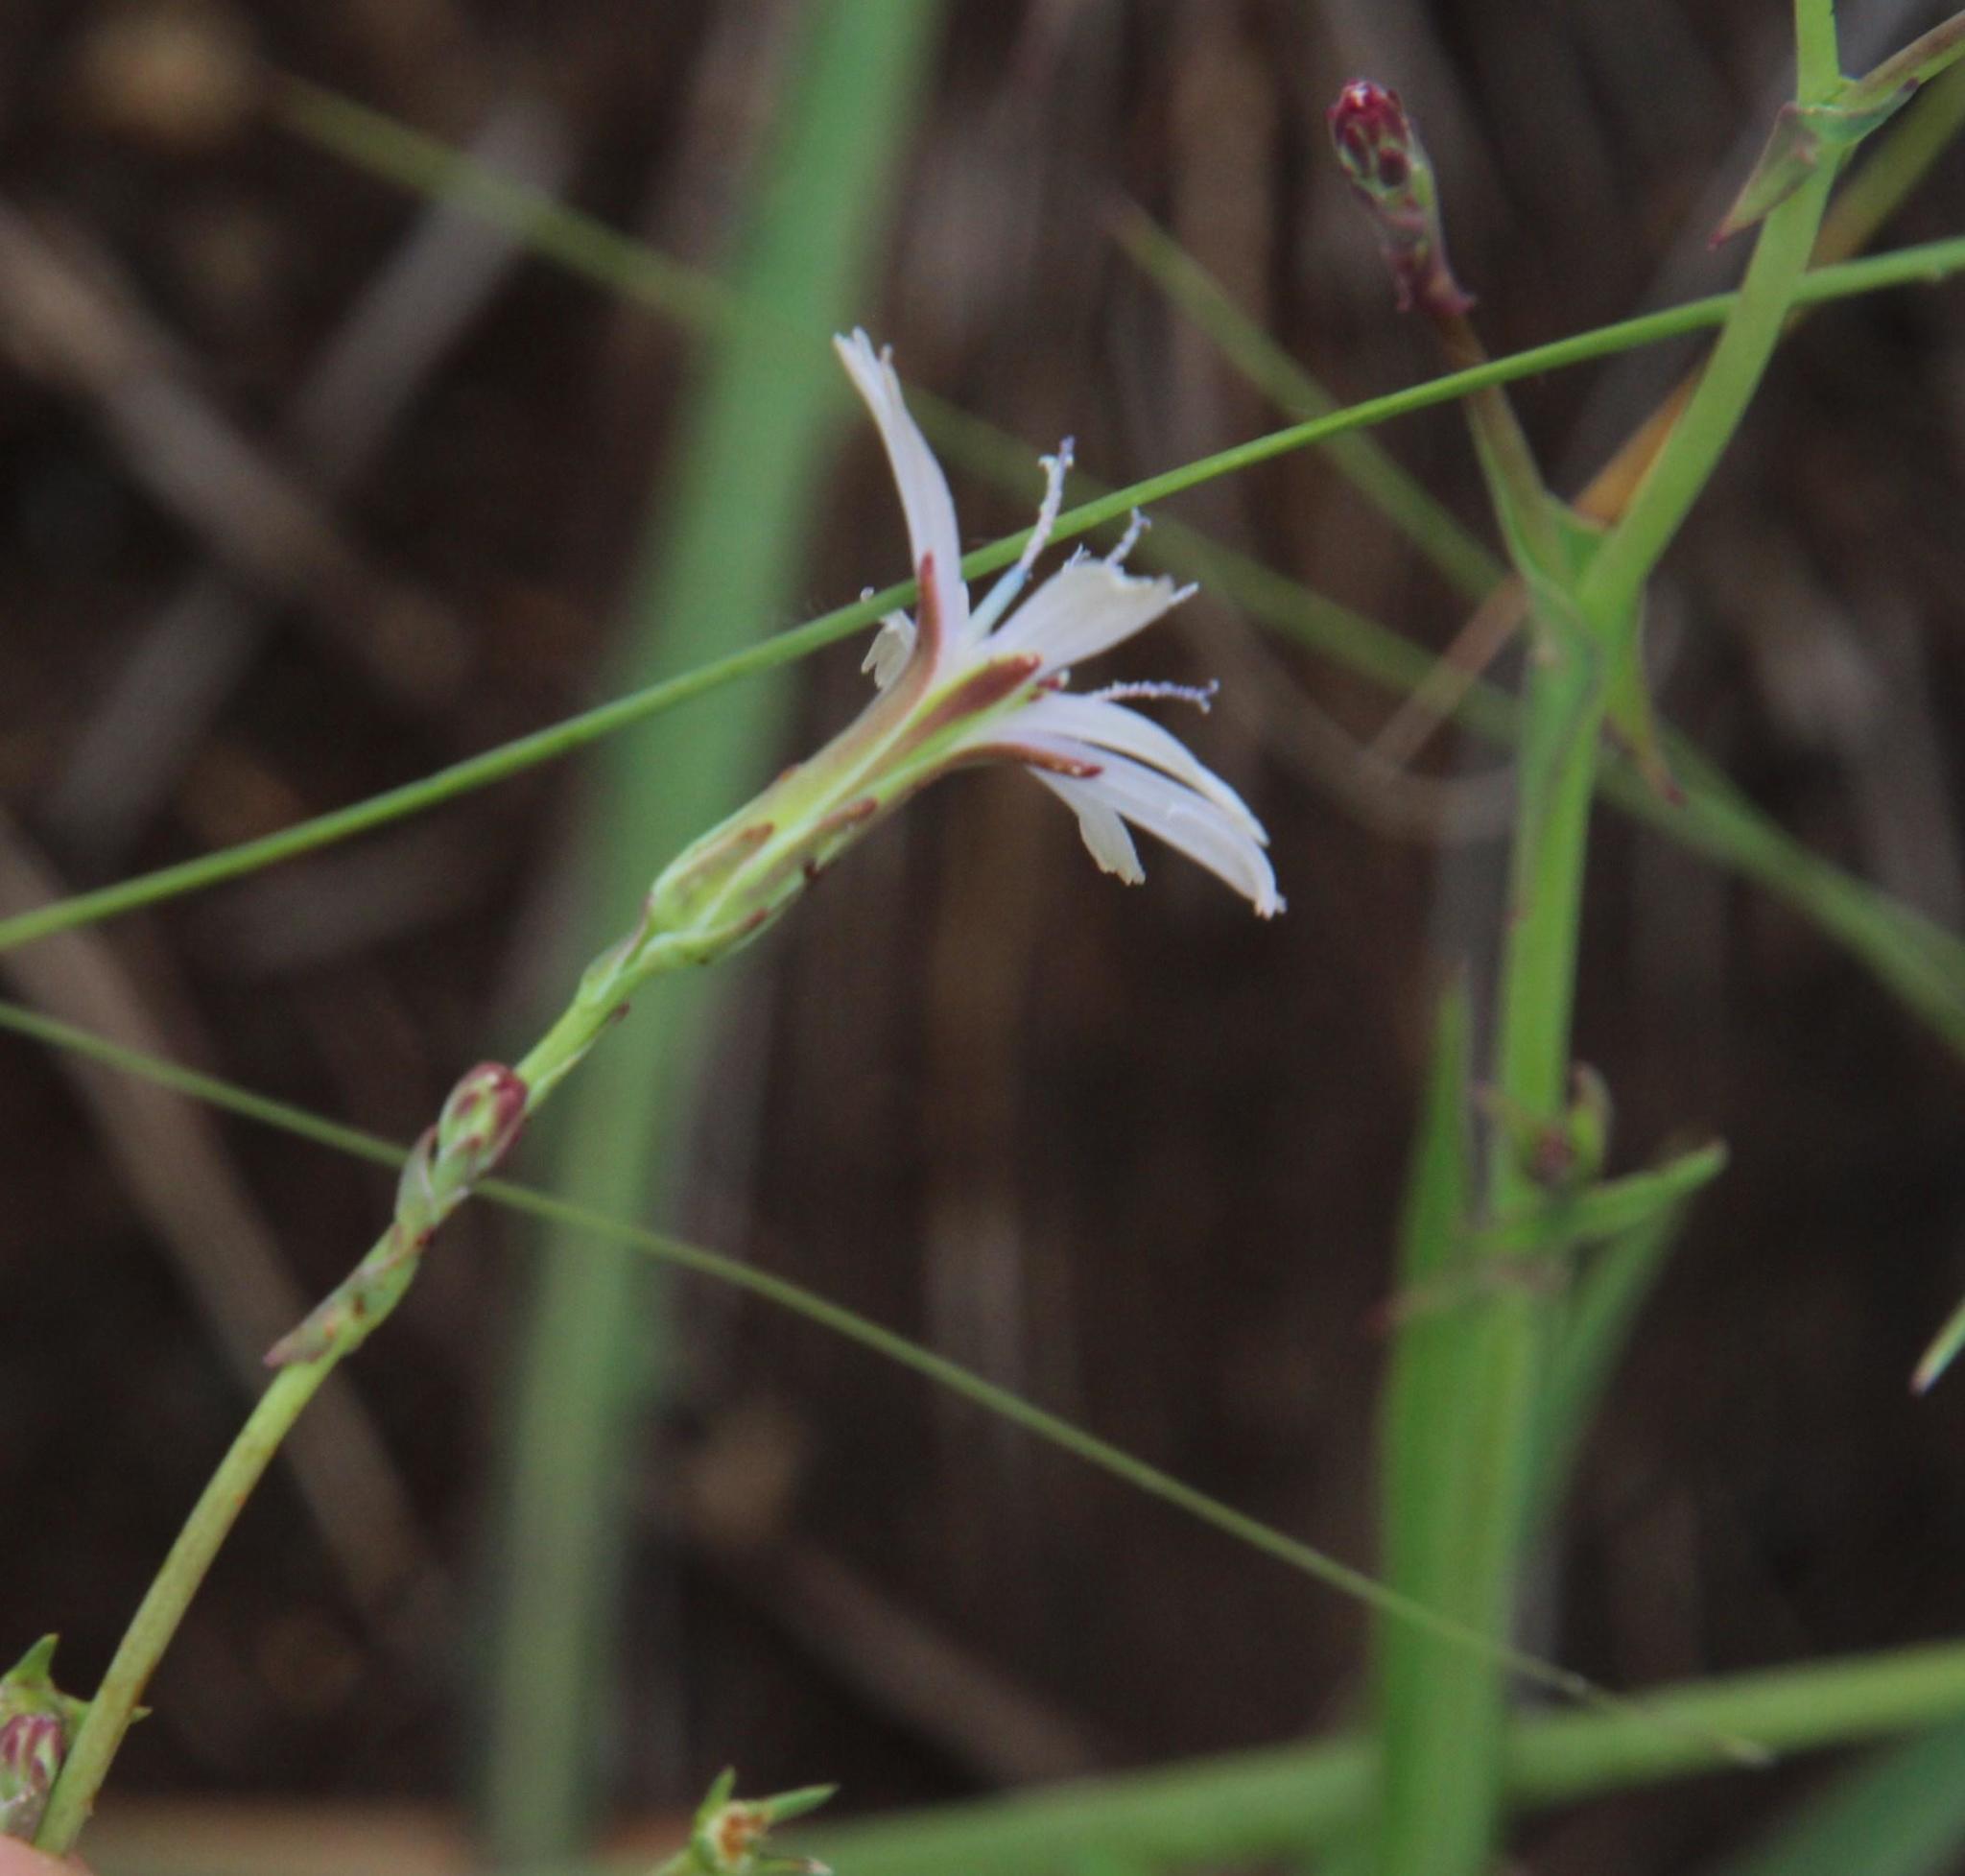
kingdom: Plantae
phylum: Tracheophyta
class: Magnoliopsida
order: Asterales
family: Asteraceae
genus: Lactuca
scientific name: Lactuca inermis
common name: Wild lettuce
